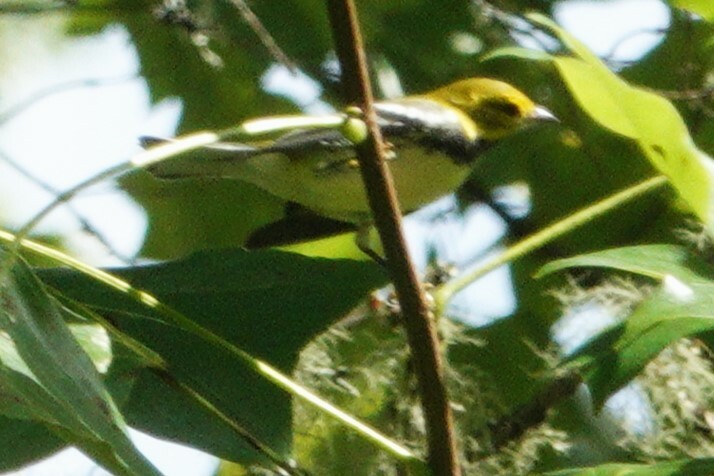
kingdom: Animalia
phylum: Chordata
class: Aves
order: Passeriformes
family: Parulidae
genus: Setophaga
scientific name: Setophaga virens
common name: Black-throated green warbler
